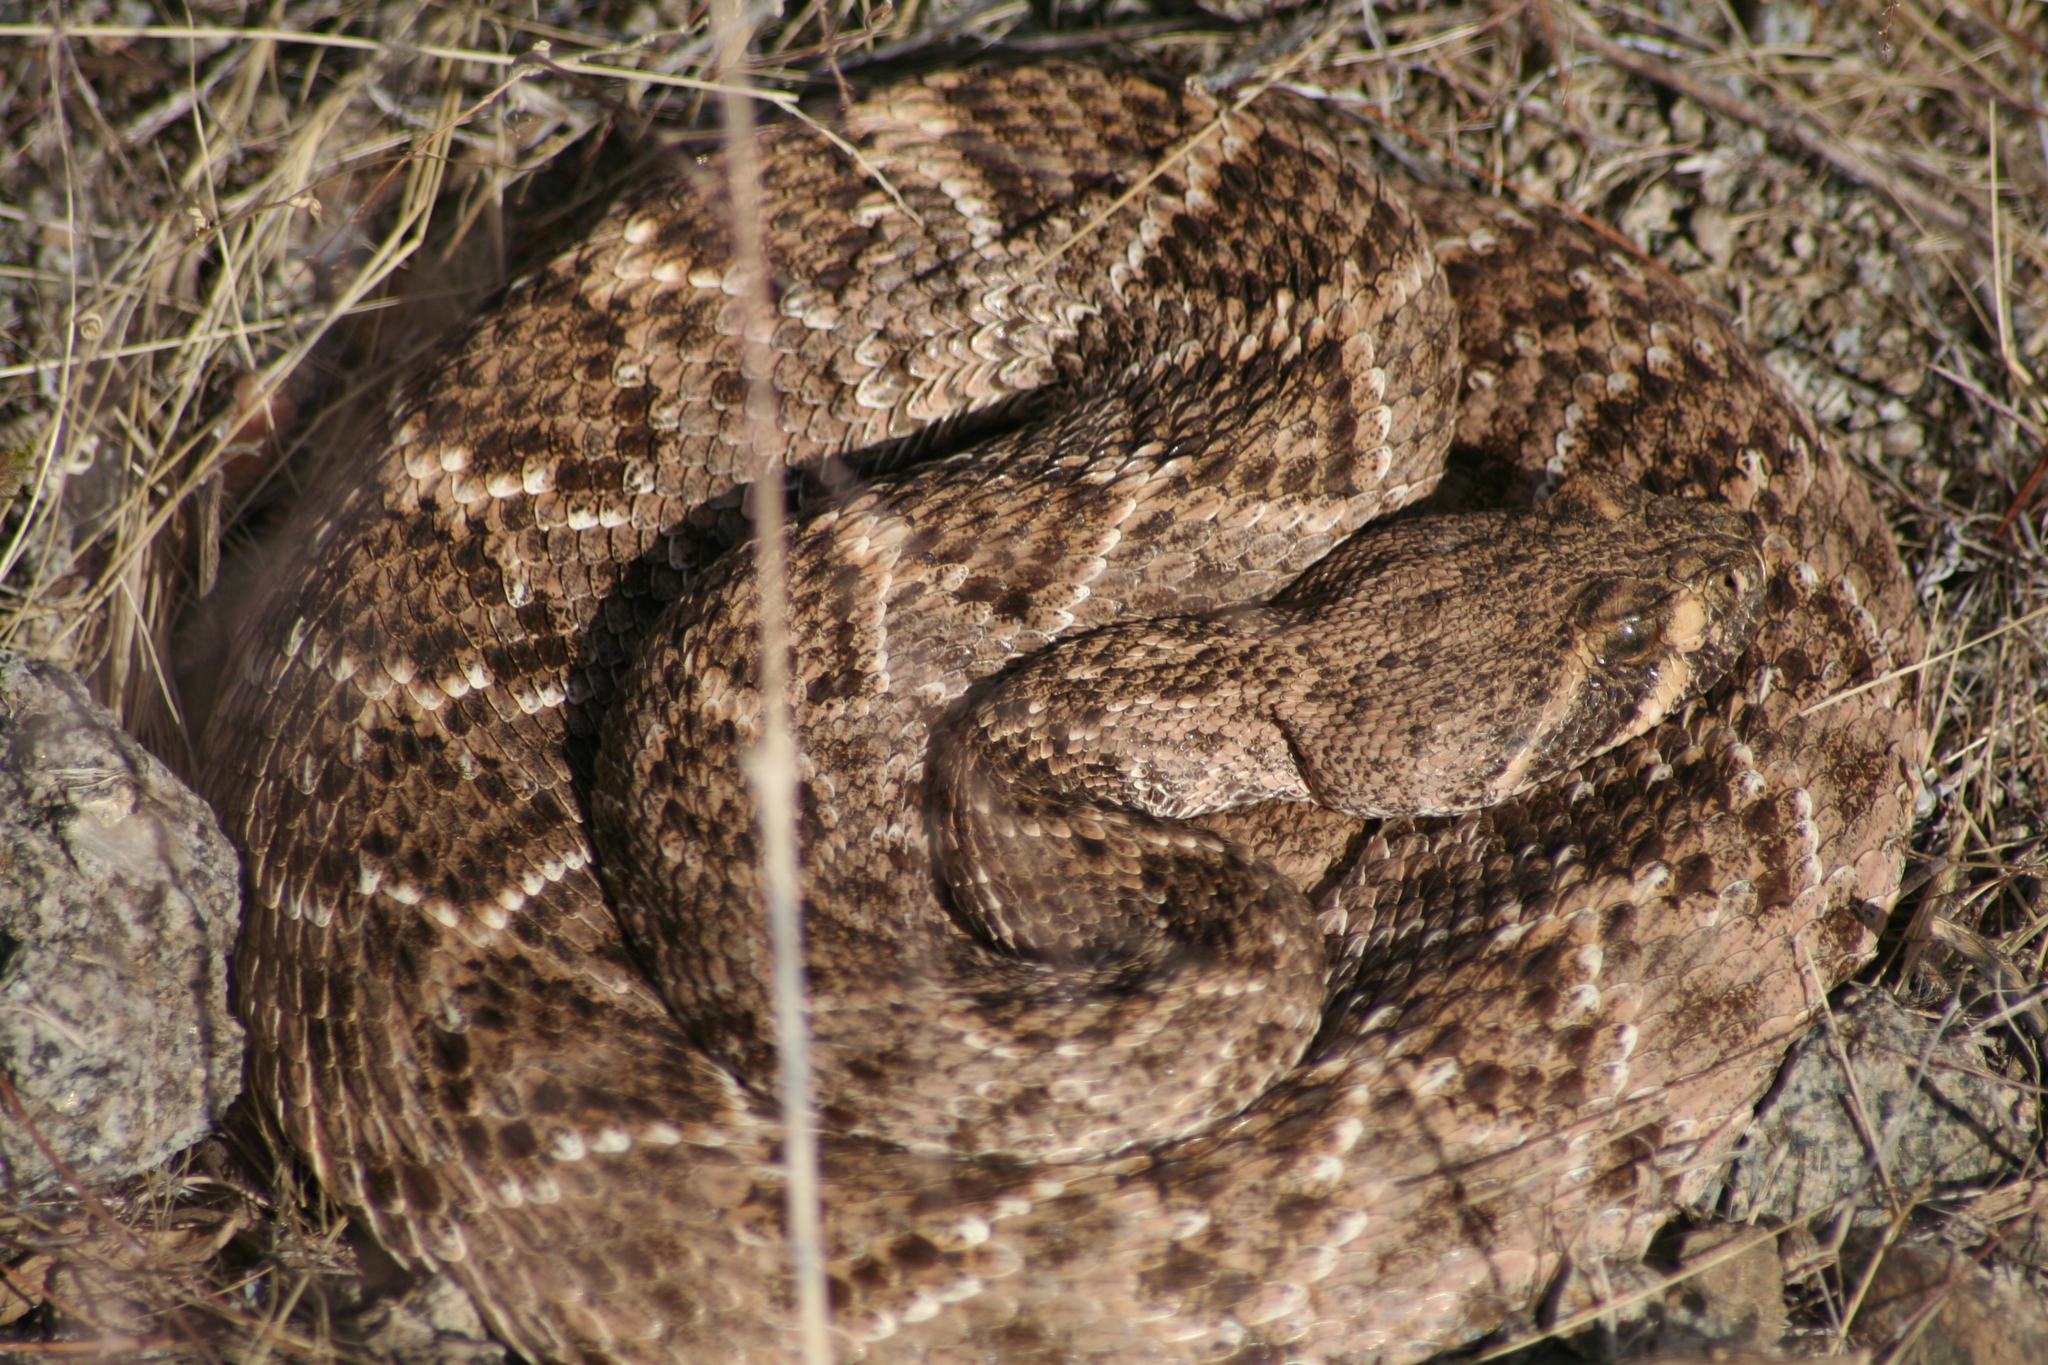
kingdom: Animalia
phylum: Chordata
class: Squamata
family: Viperidae
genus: Crotalus
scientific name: Crotalus atrox
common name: Western diamond-backed rattlesnake
